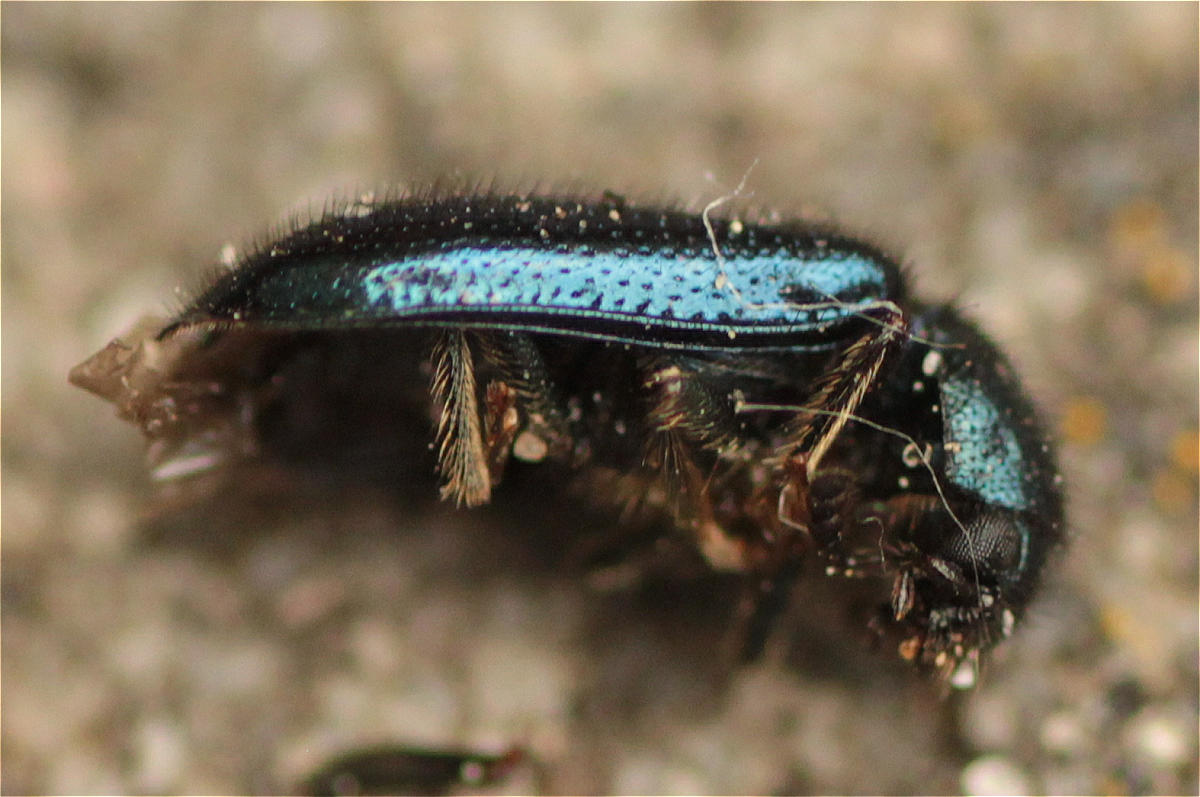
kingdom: Animalia
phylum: Arthropoda
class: Insecta
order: Coleoptera
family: Cleridae
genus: Korynetes
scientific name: Korynetes caeruleus
